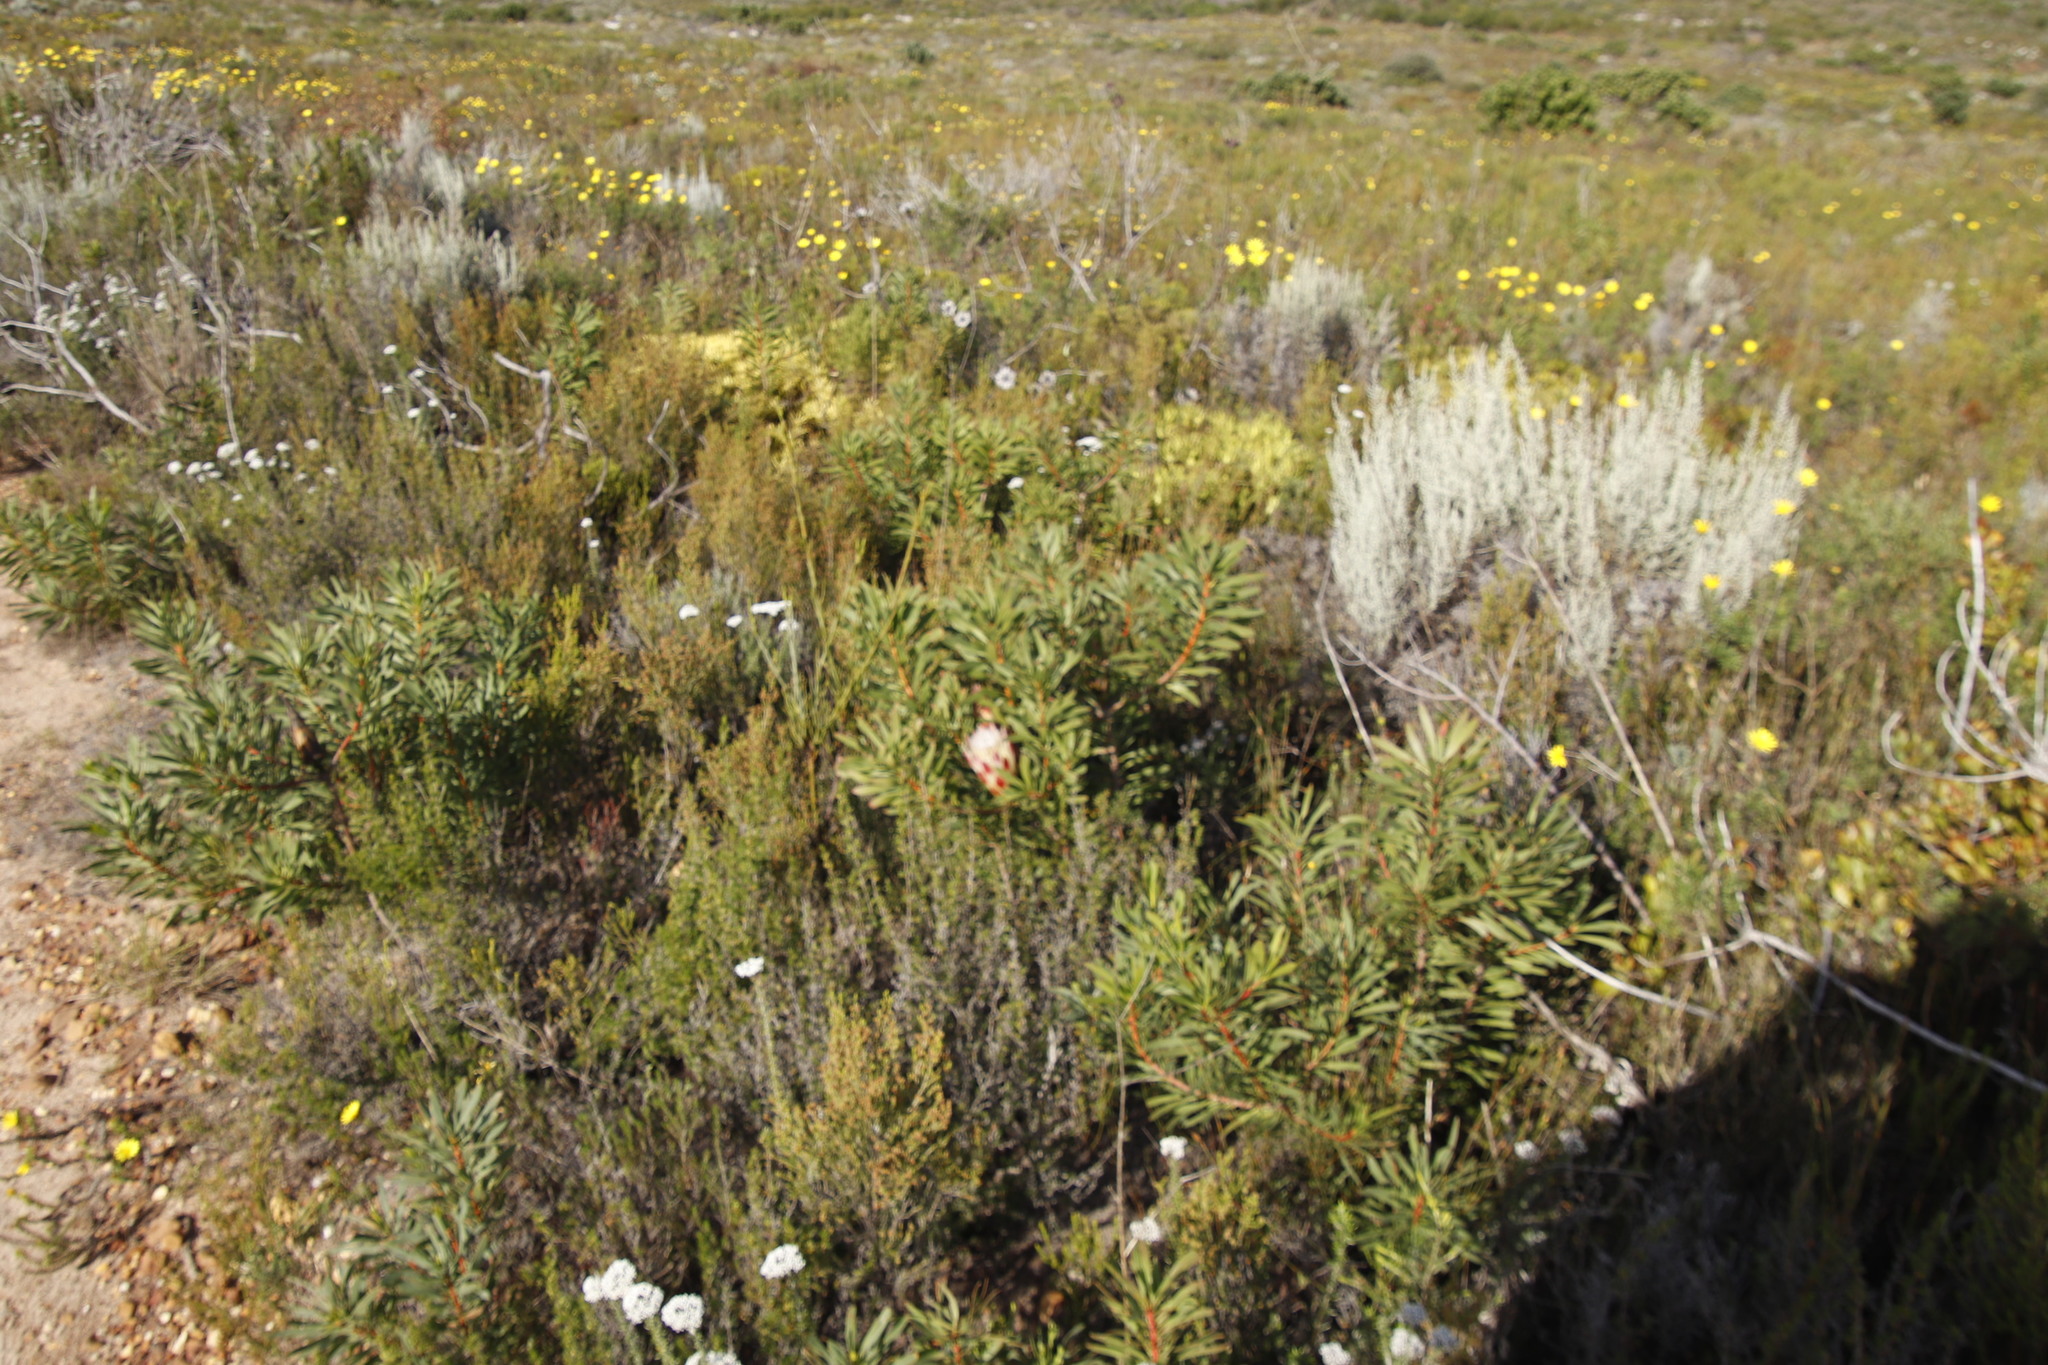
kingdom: Plantae
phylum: Tracheophyta
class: Magnoliopsida
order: Proteales
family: Proteaceae
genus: Protea
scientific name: Protea repens
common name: Sugarbush
